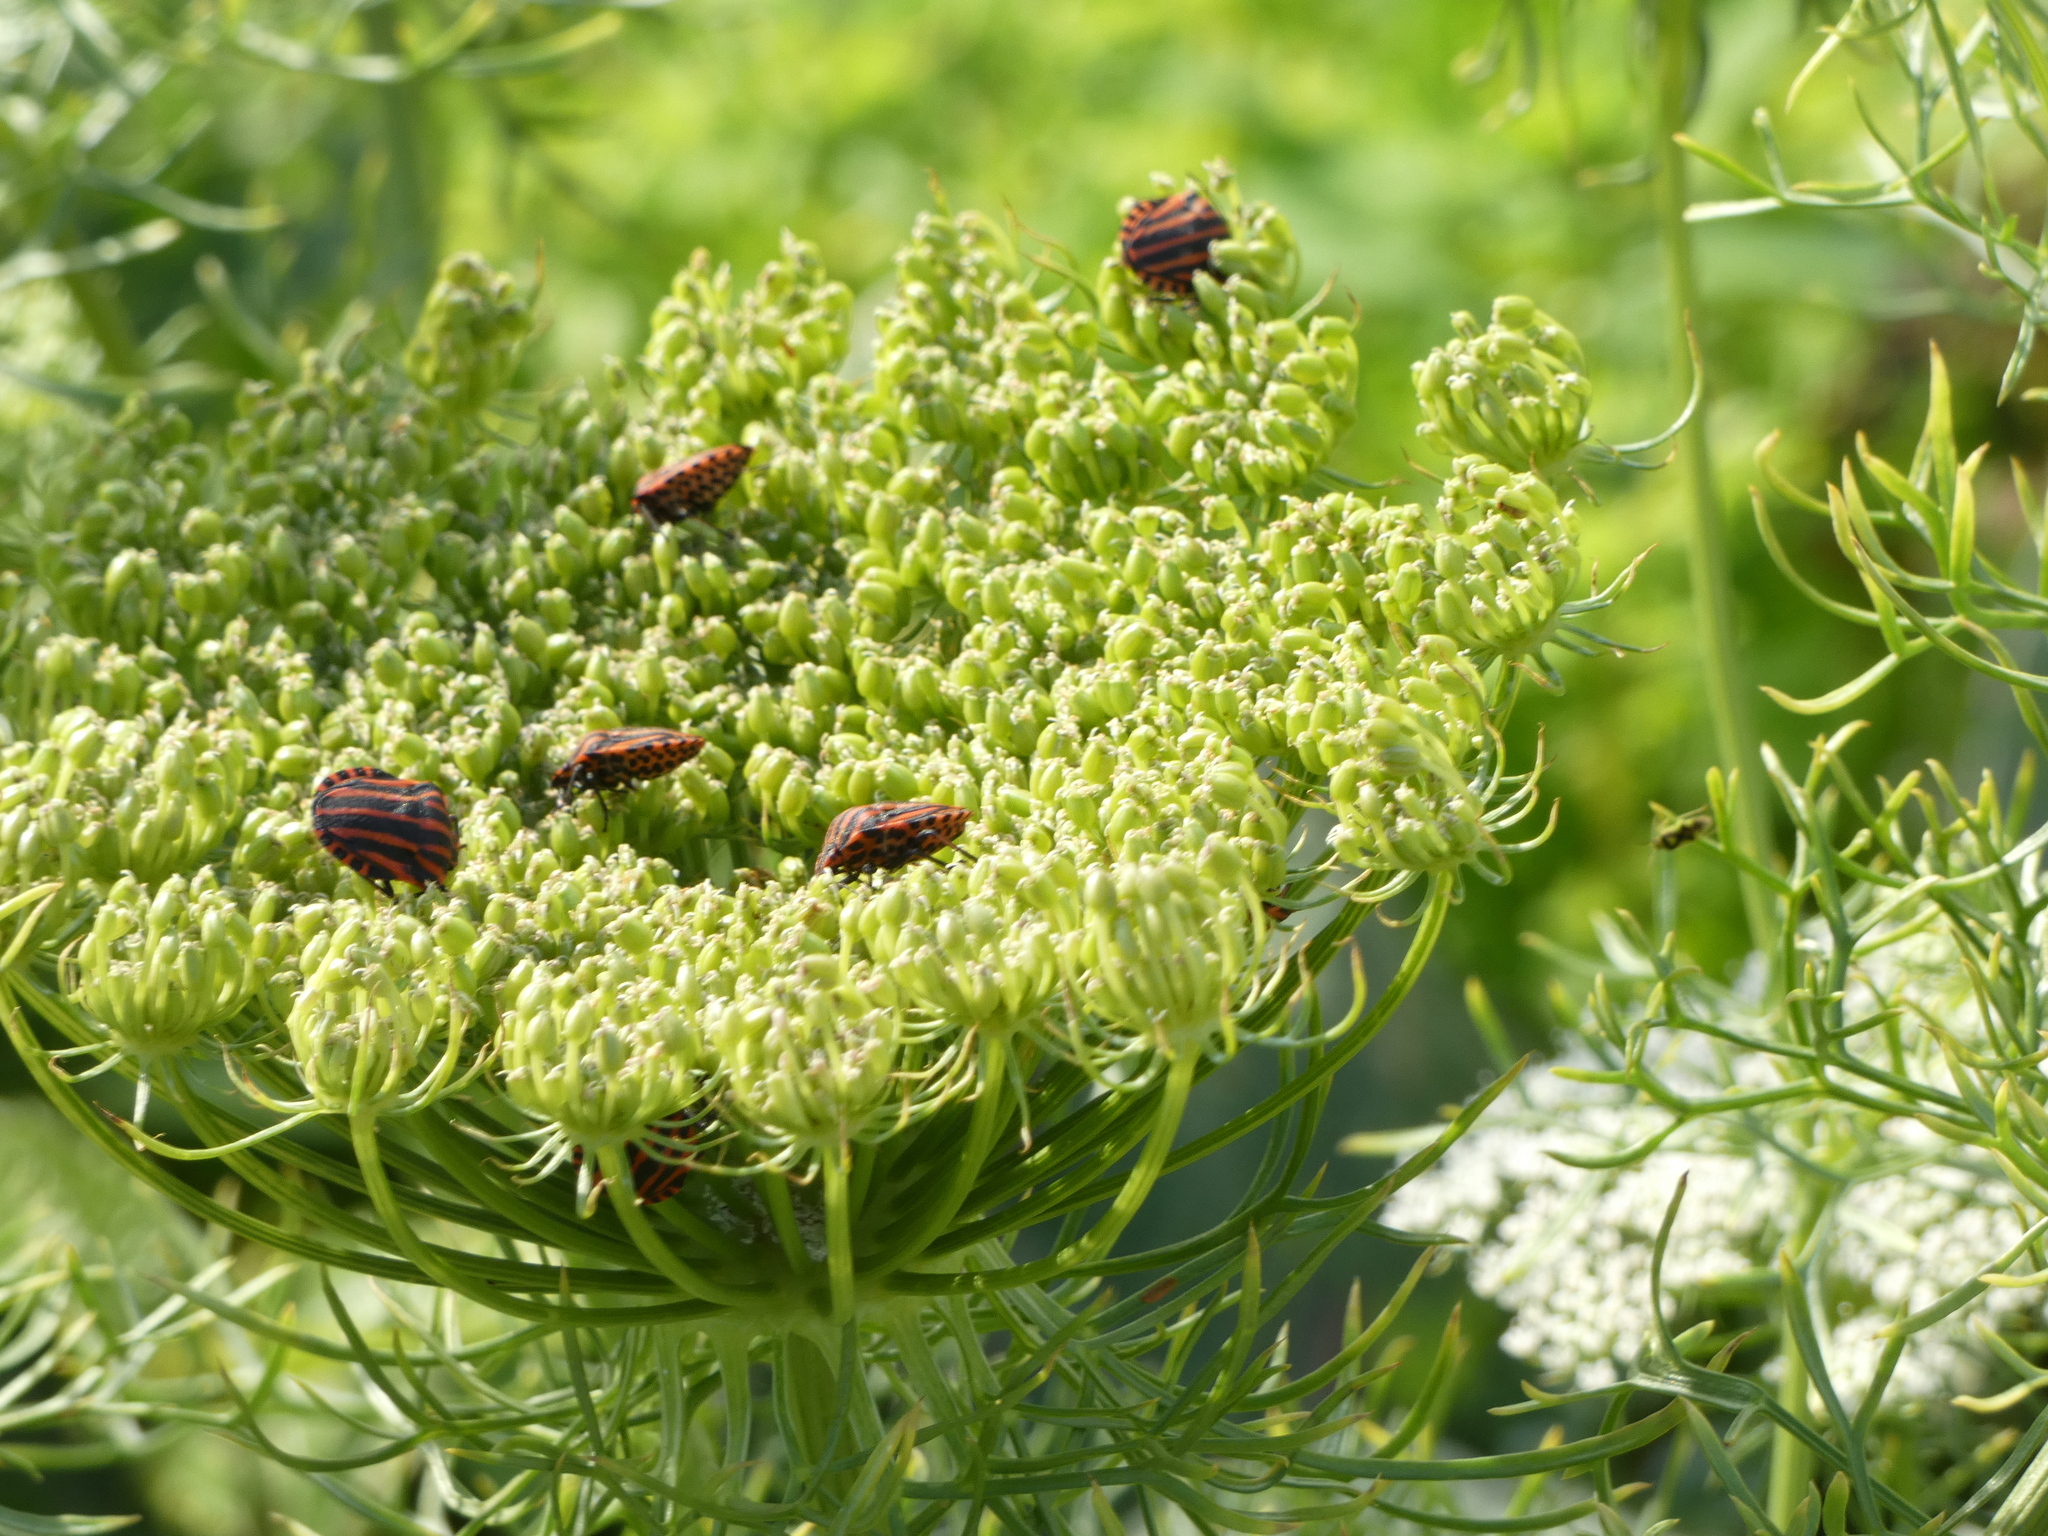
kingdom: Animalia
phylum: Arthropoda
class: Insecta
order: Hemiptera
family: Pentatomidae
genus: Graphosoma
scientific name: Graphosoma italicum
